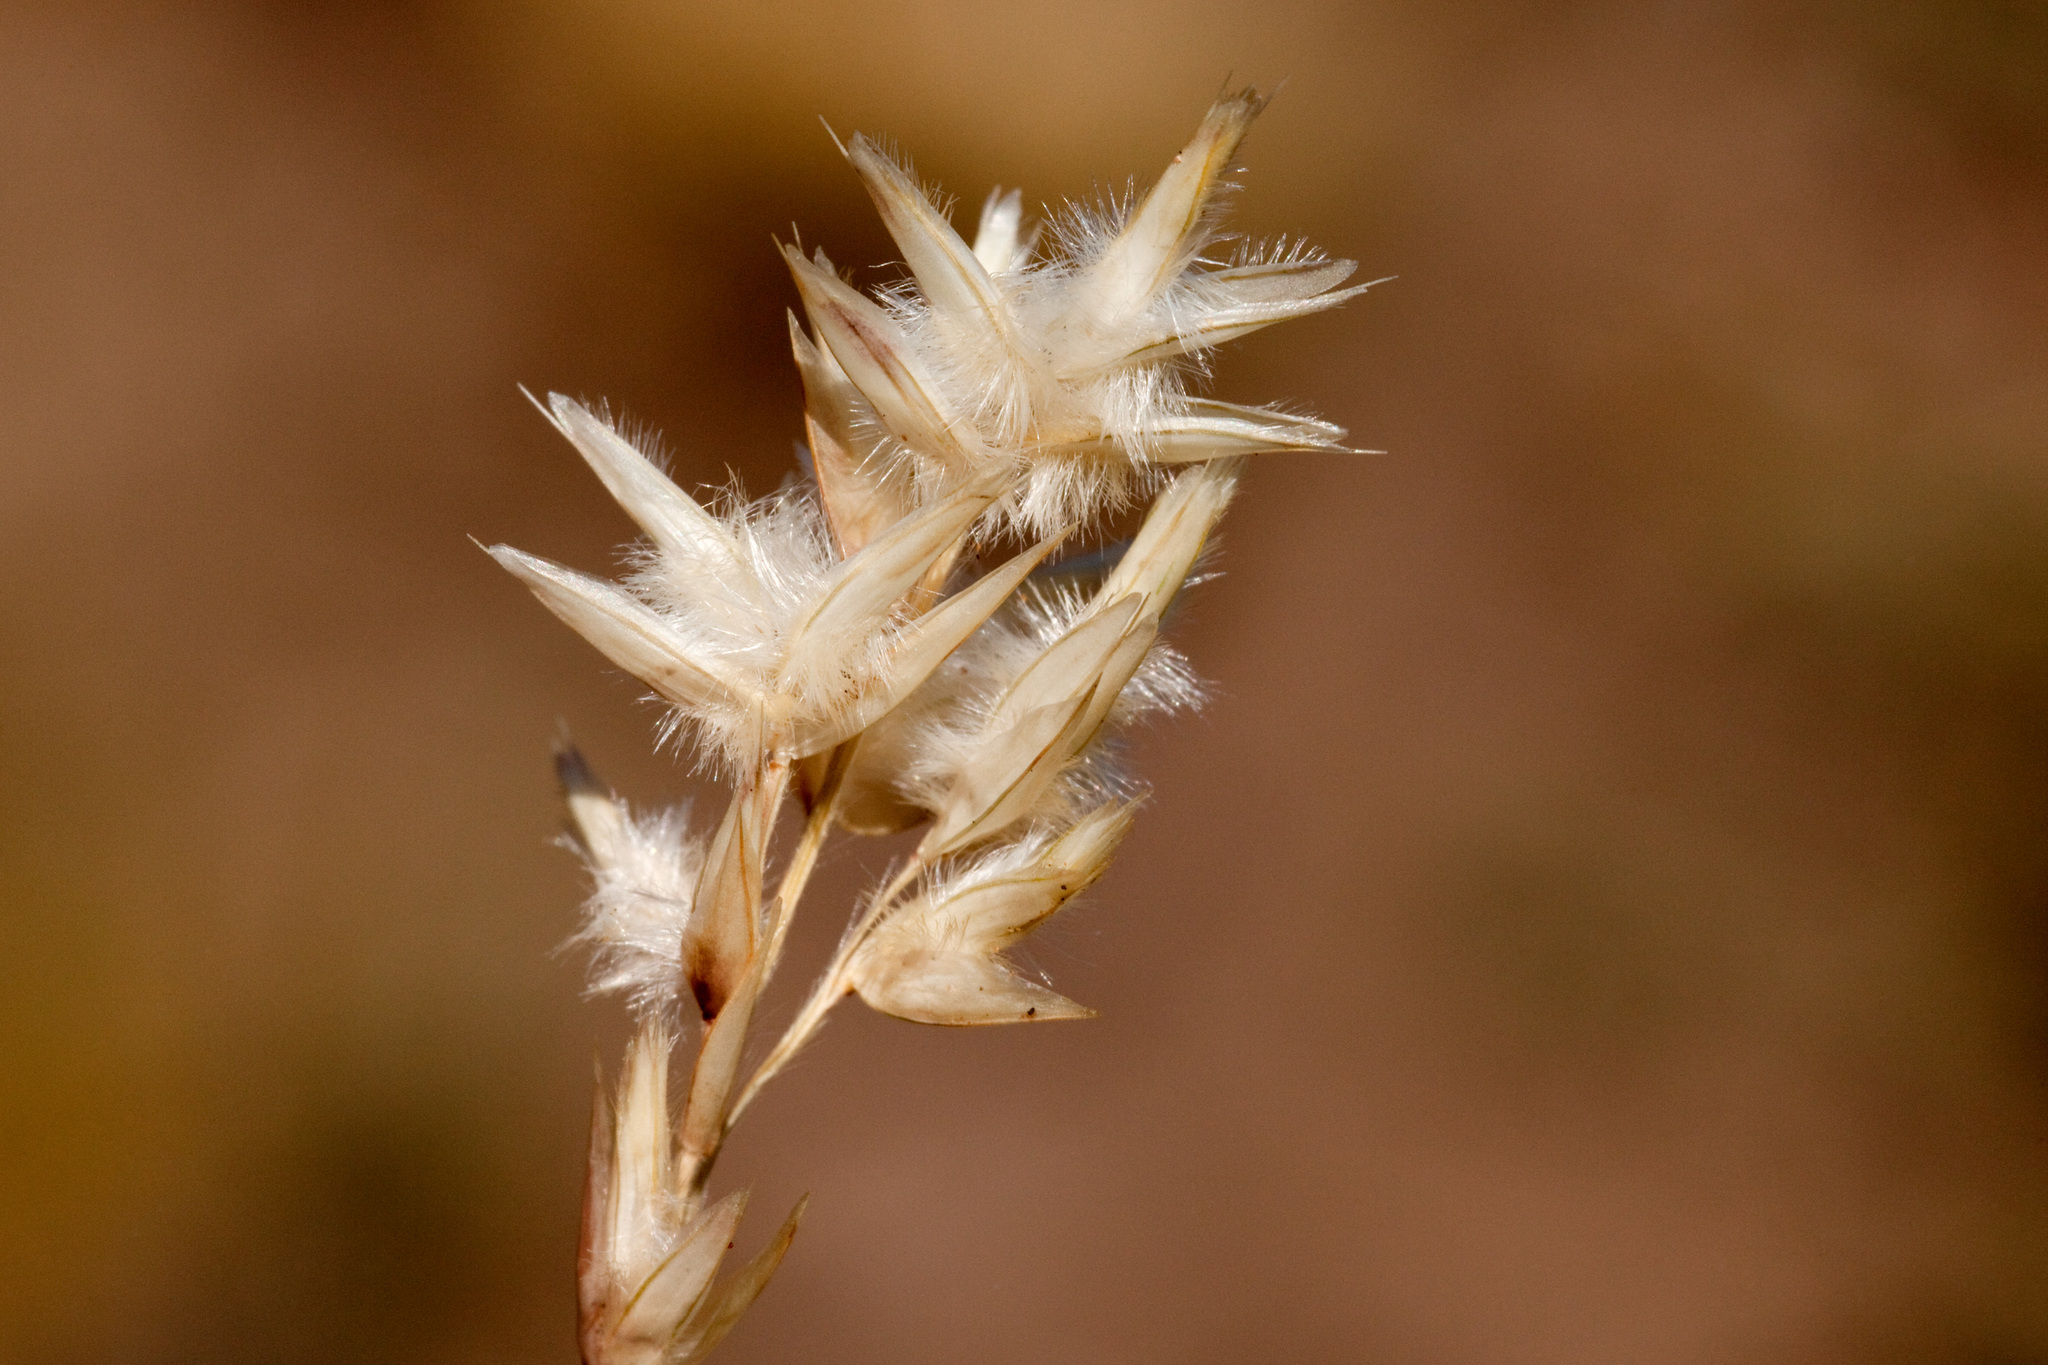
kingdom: Plantae
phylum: Tracheophyta
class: Liliopsida
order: Poales
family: Poaceae
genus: Erioneuron
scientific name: Erioneuron avenaceum
